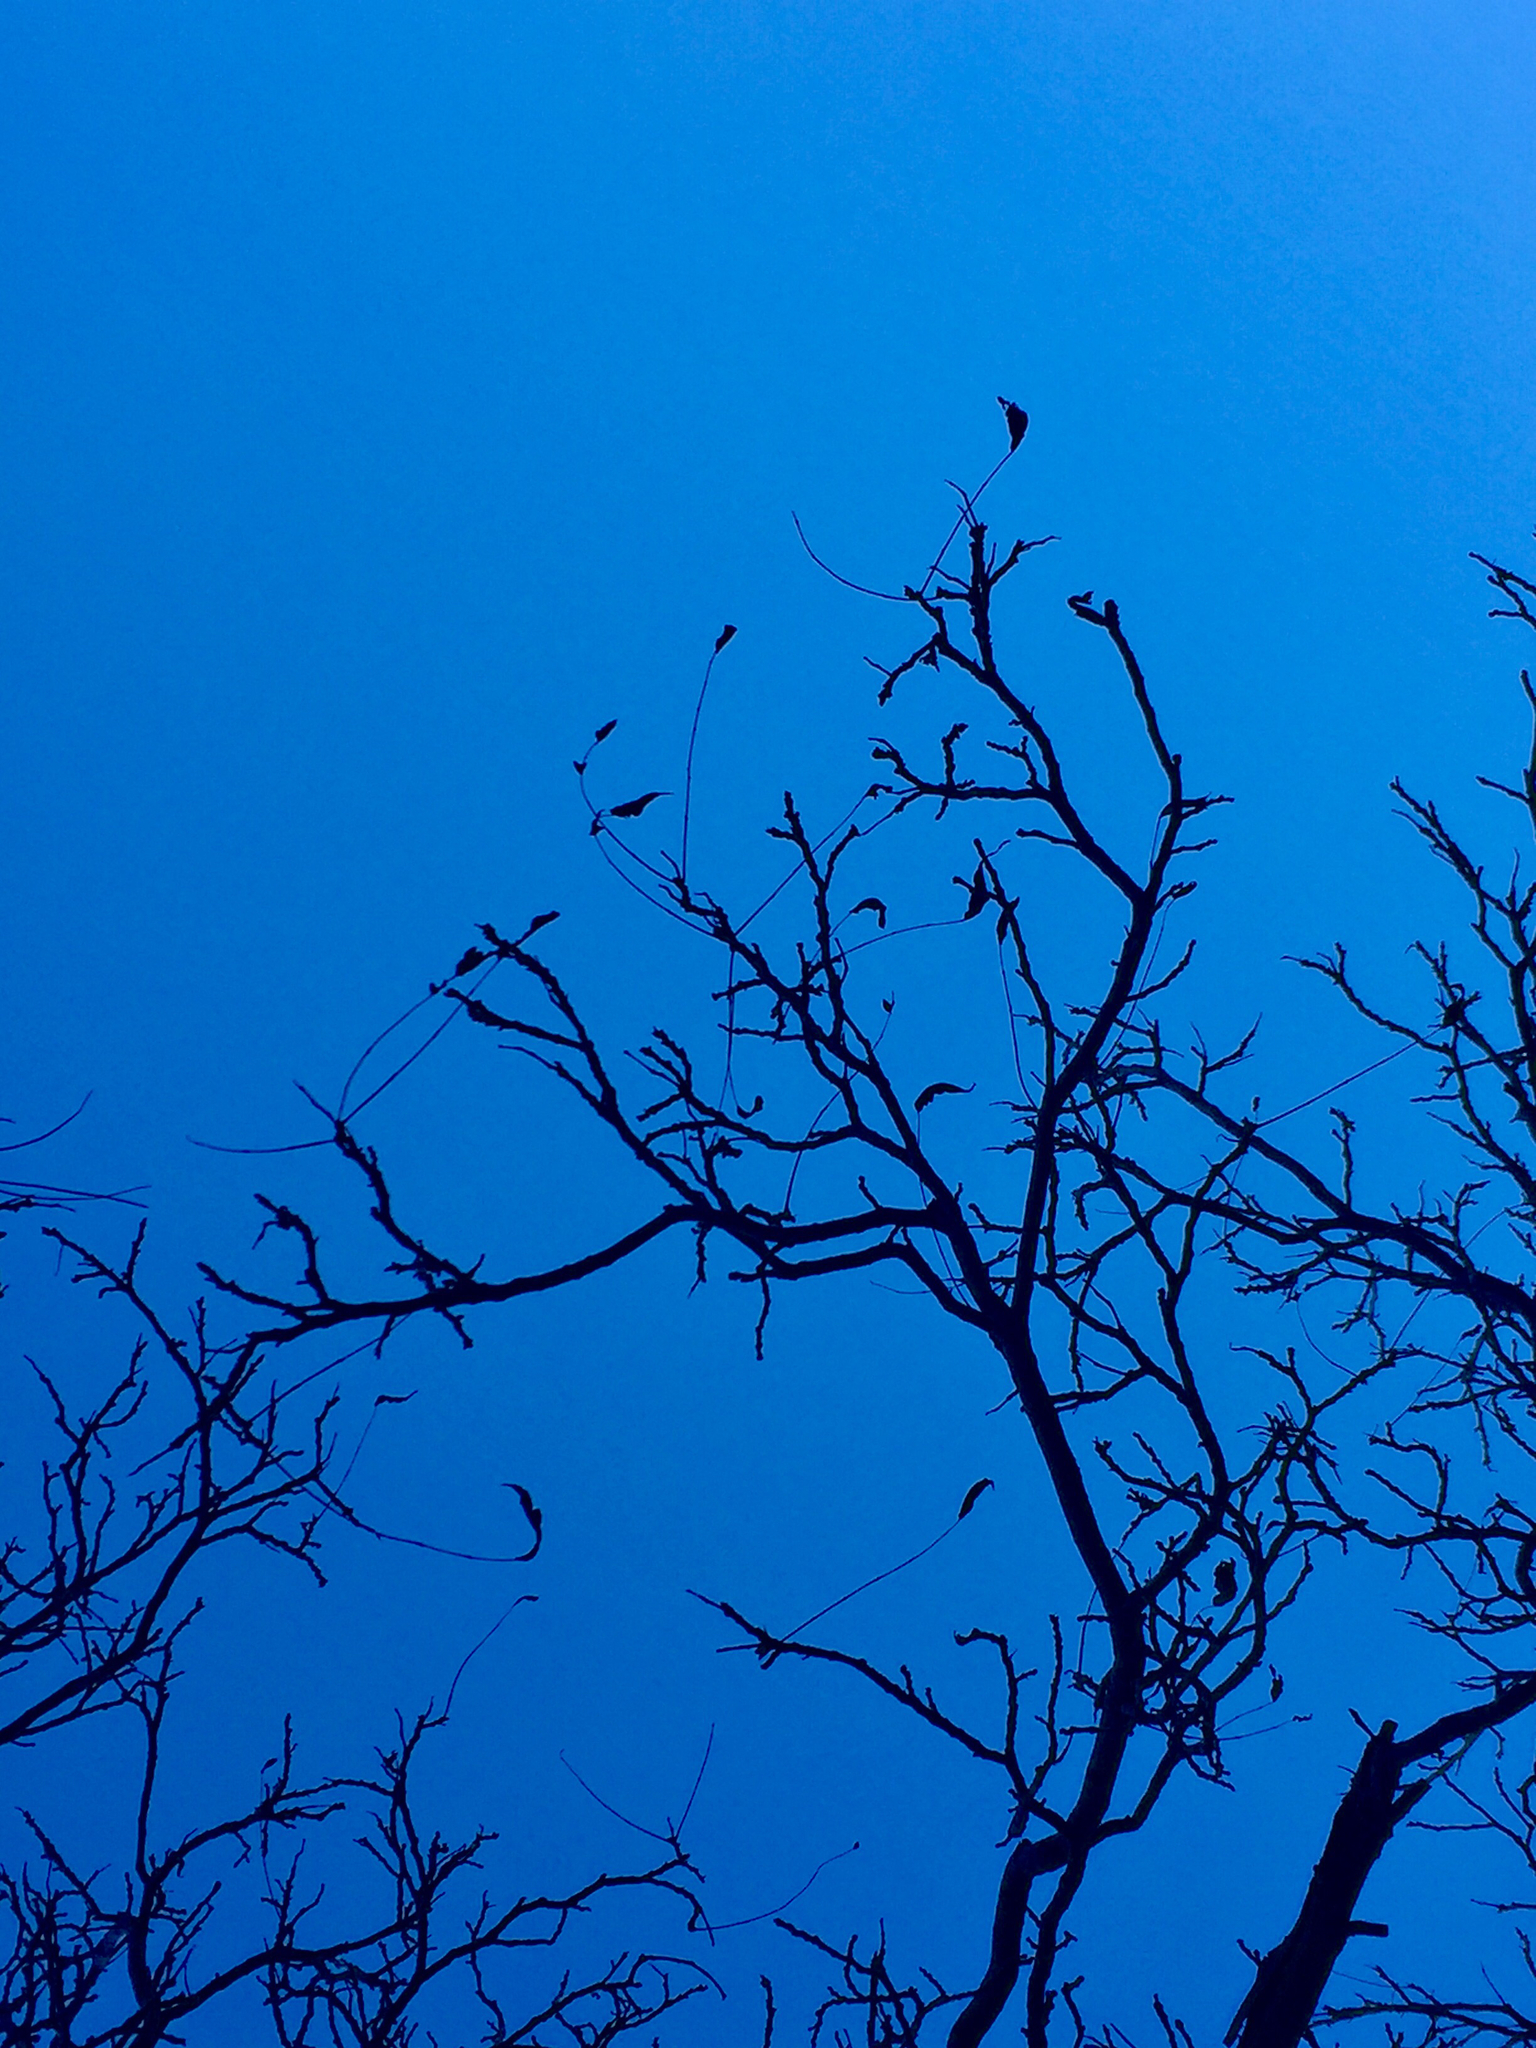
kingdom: Plantae
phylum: Tracheophyta
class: Magnoliopsida
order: Fagales
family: Fagaceae
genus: Quercus
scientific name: Quercus gambelii
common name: Gambel oak
